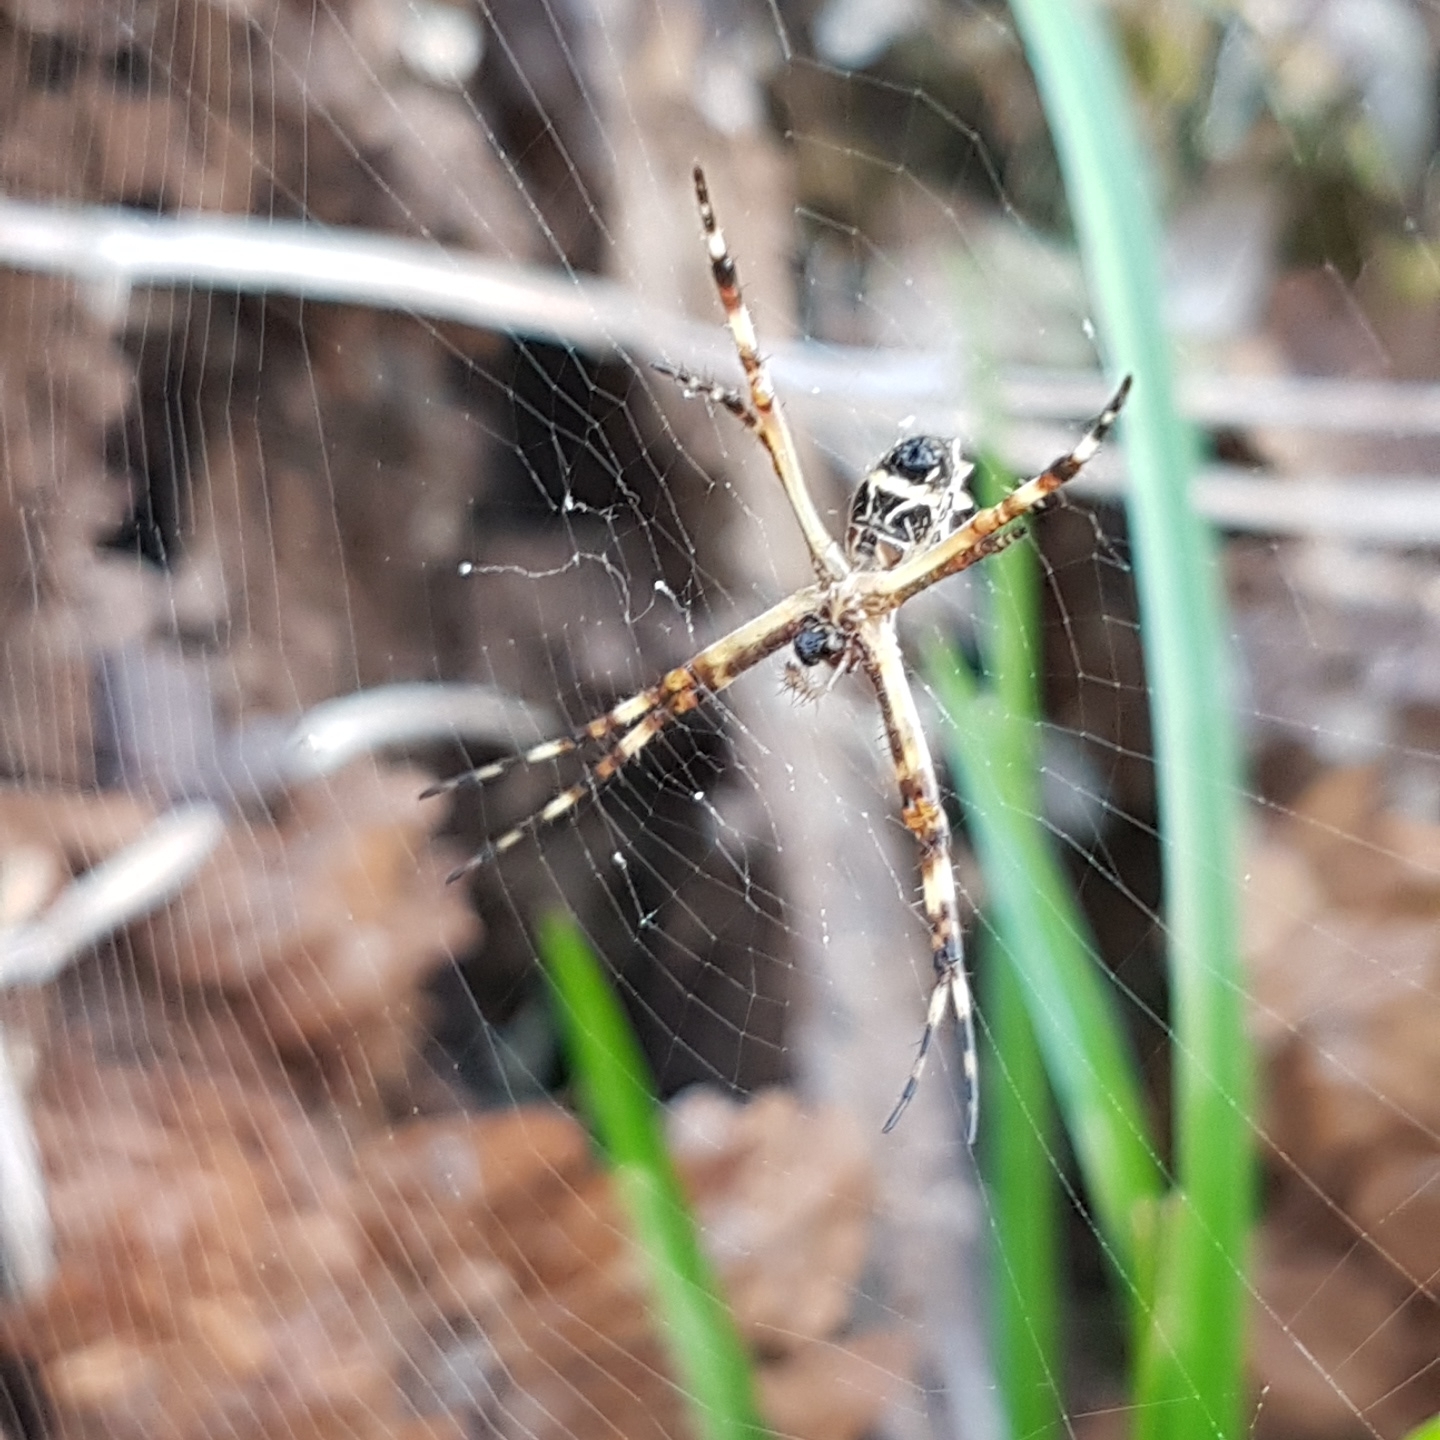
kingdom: Animalia
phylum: Arthropoda
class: Arachnida
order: Araneae
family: Araneidae
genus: Argiope
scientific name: Argiope argentata
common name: Orb weavers
